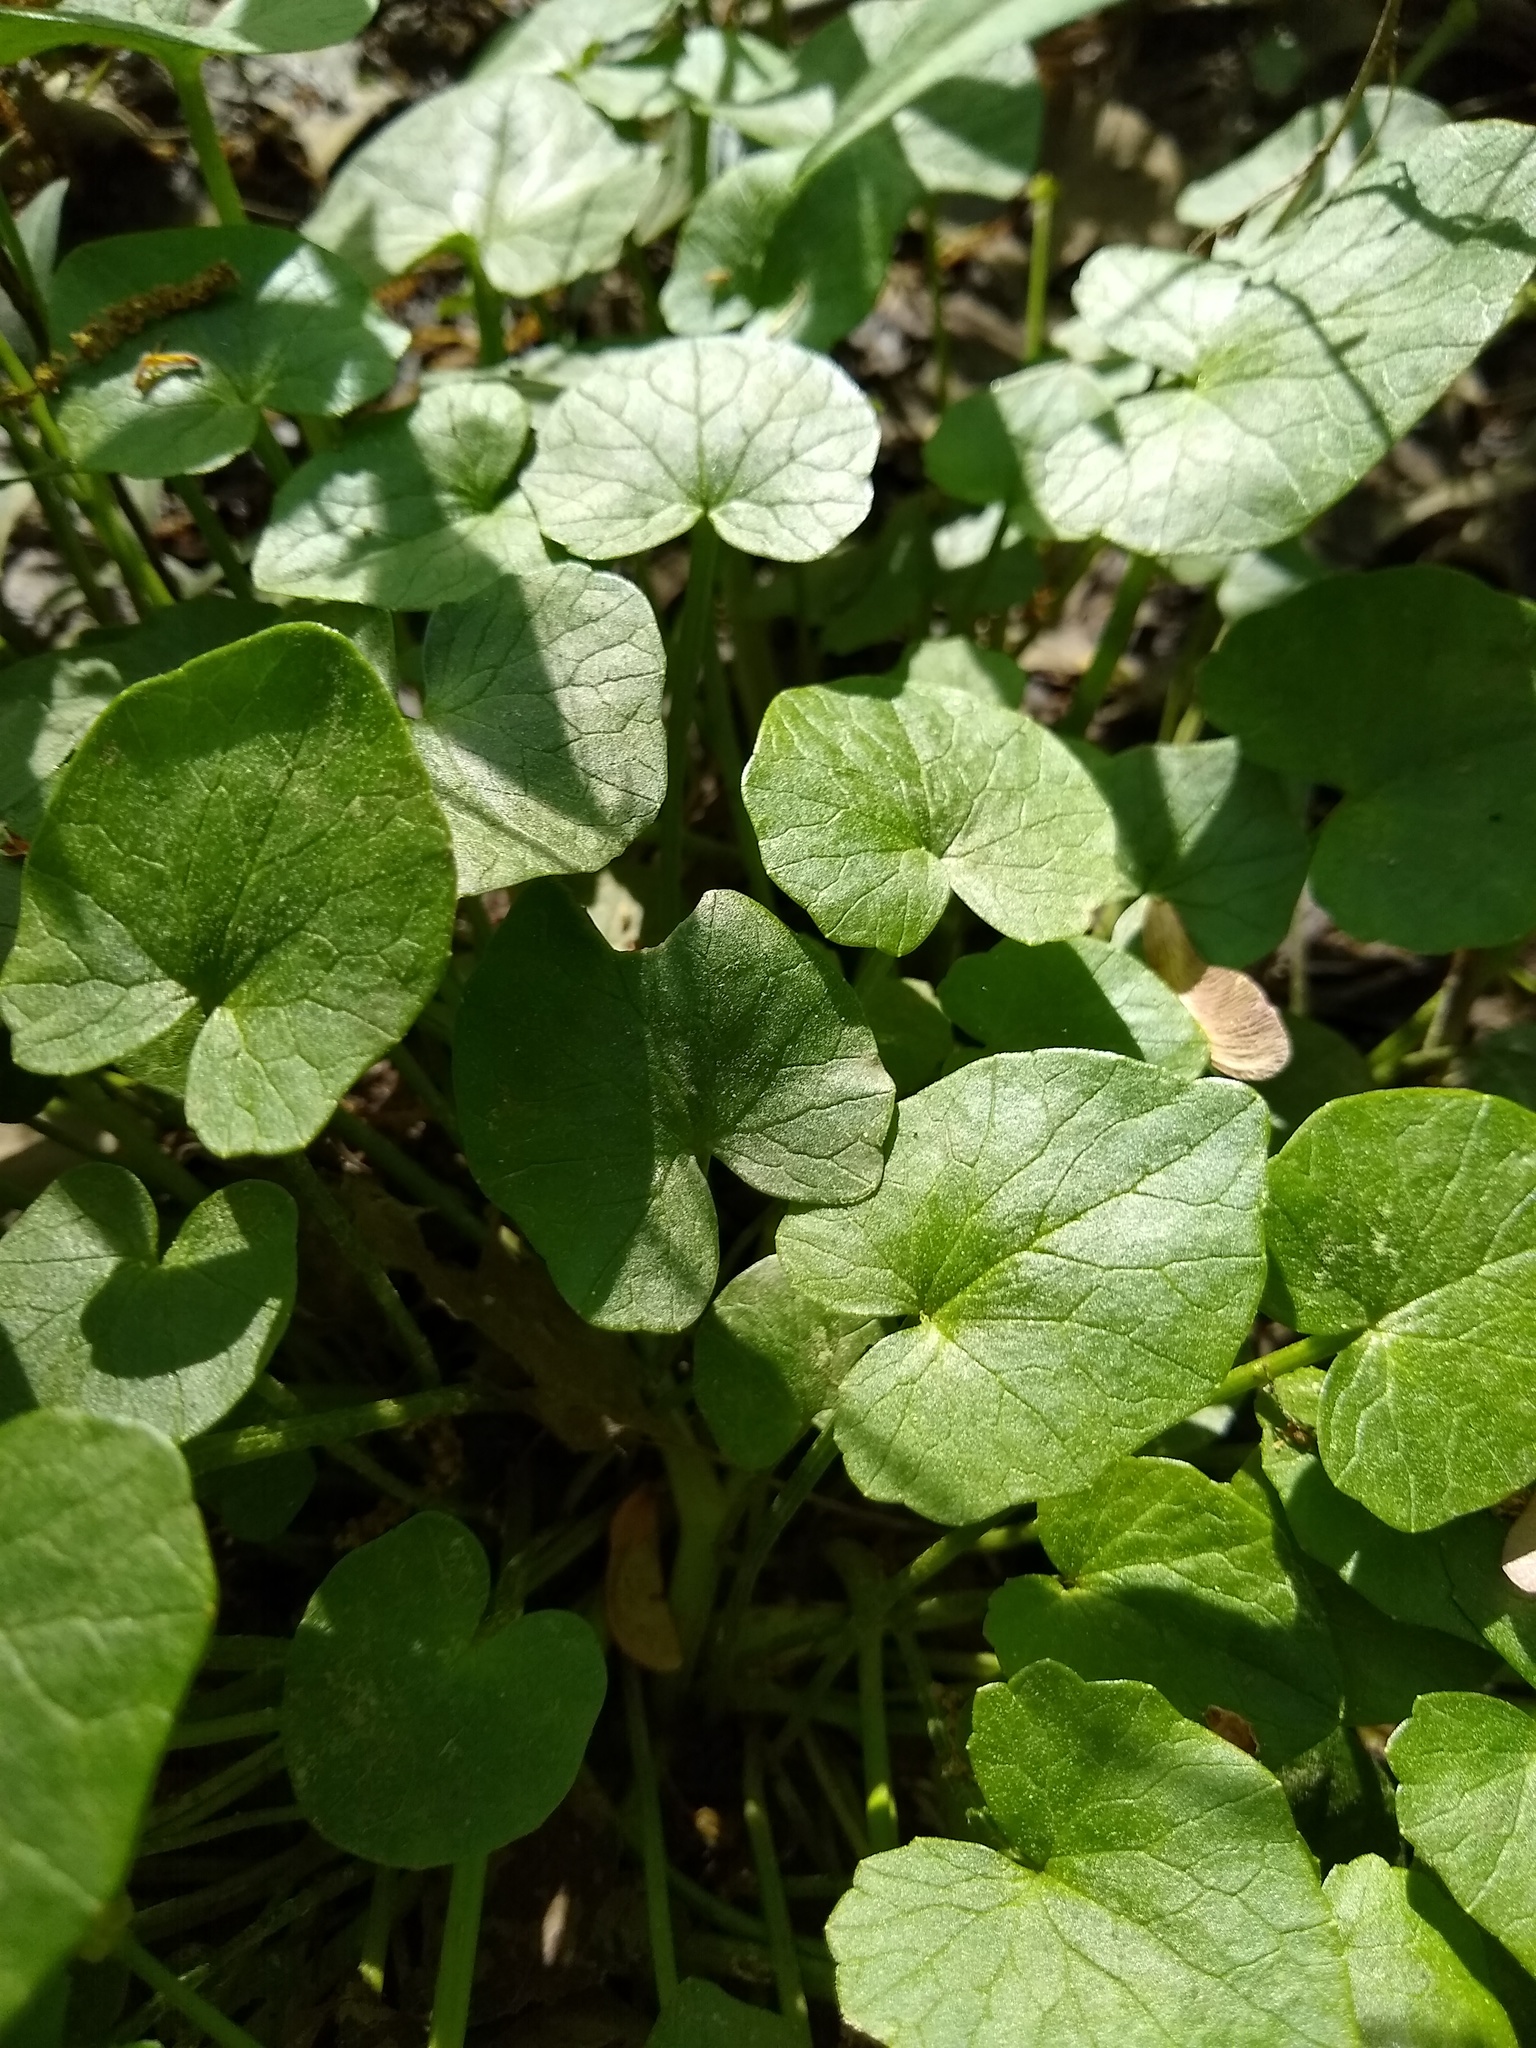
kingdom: Plantae
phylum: Tracheophyta
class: Magnoliopsida
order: Ranunculales
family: Ranunculaceae
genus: Ficaria
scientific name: Ficaria verna
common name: Lesser celandine
